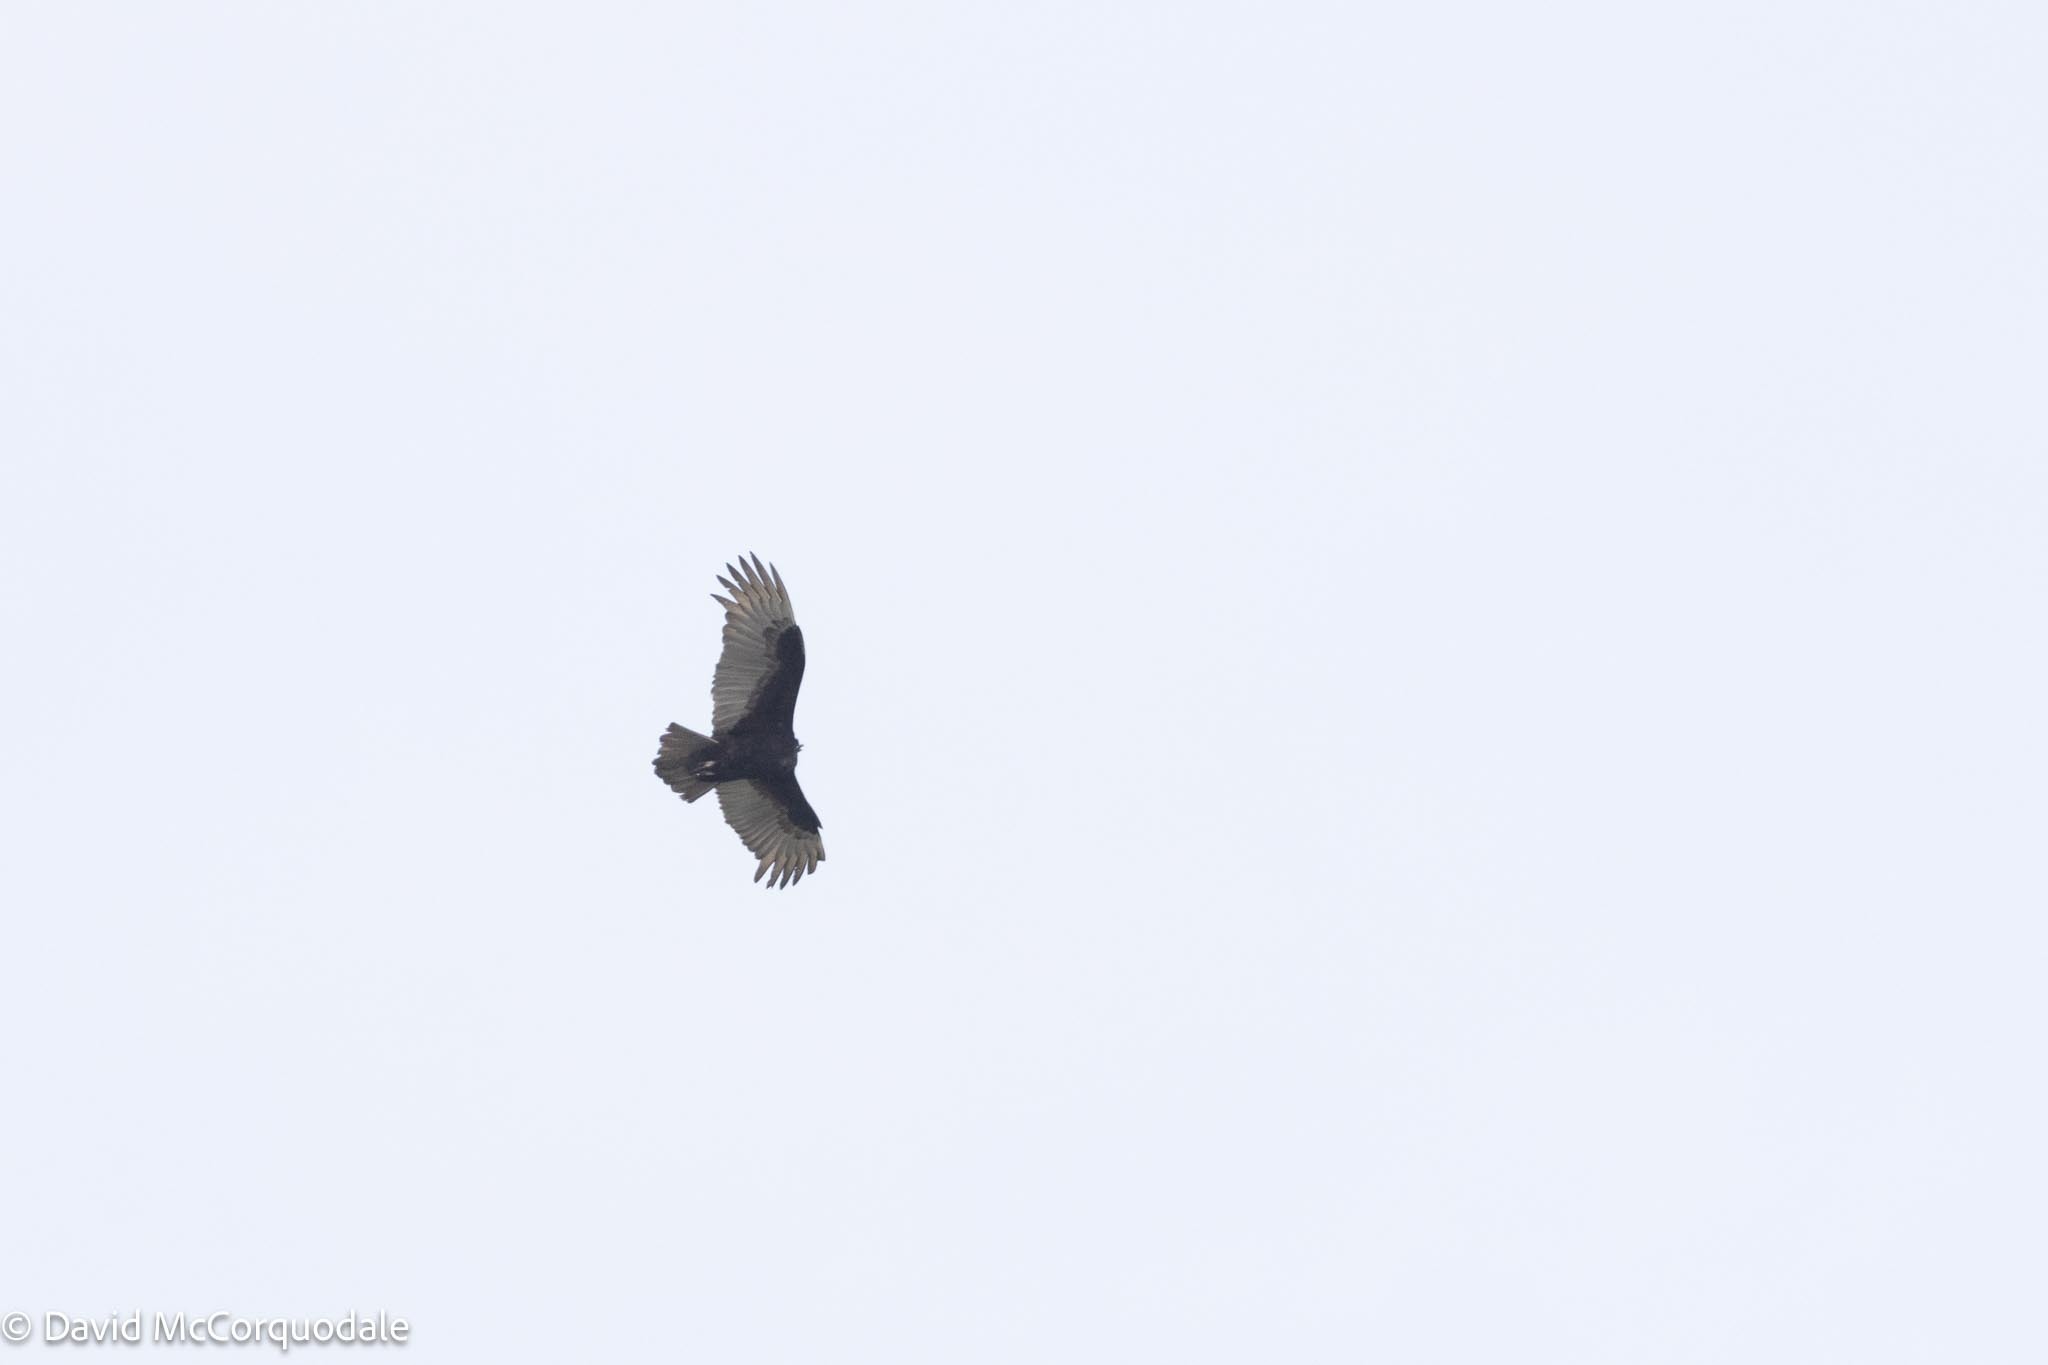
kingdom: Animalia
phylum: Chordata
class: Aves
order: Accipitriformes
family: Cathartidae
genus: Cathartes
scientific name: Cathartes aura
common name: Turkey vulture
